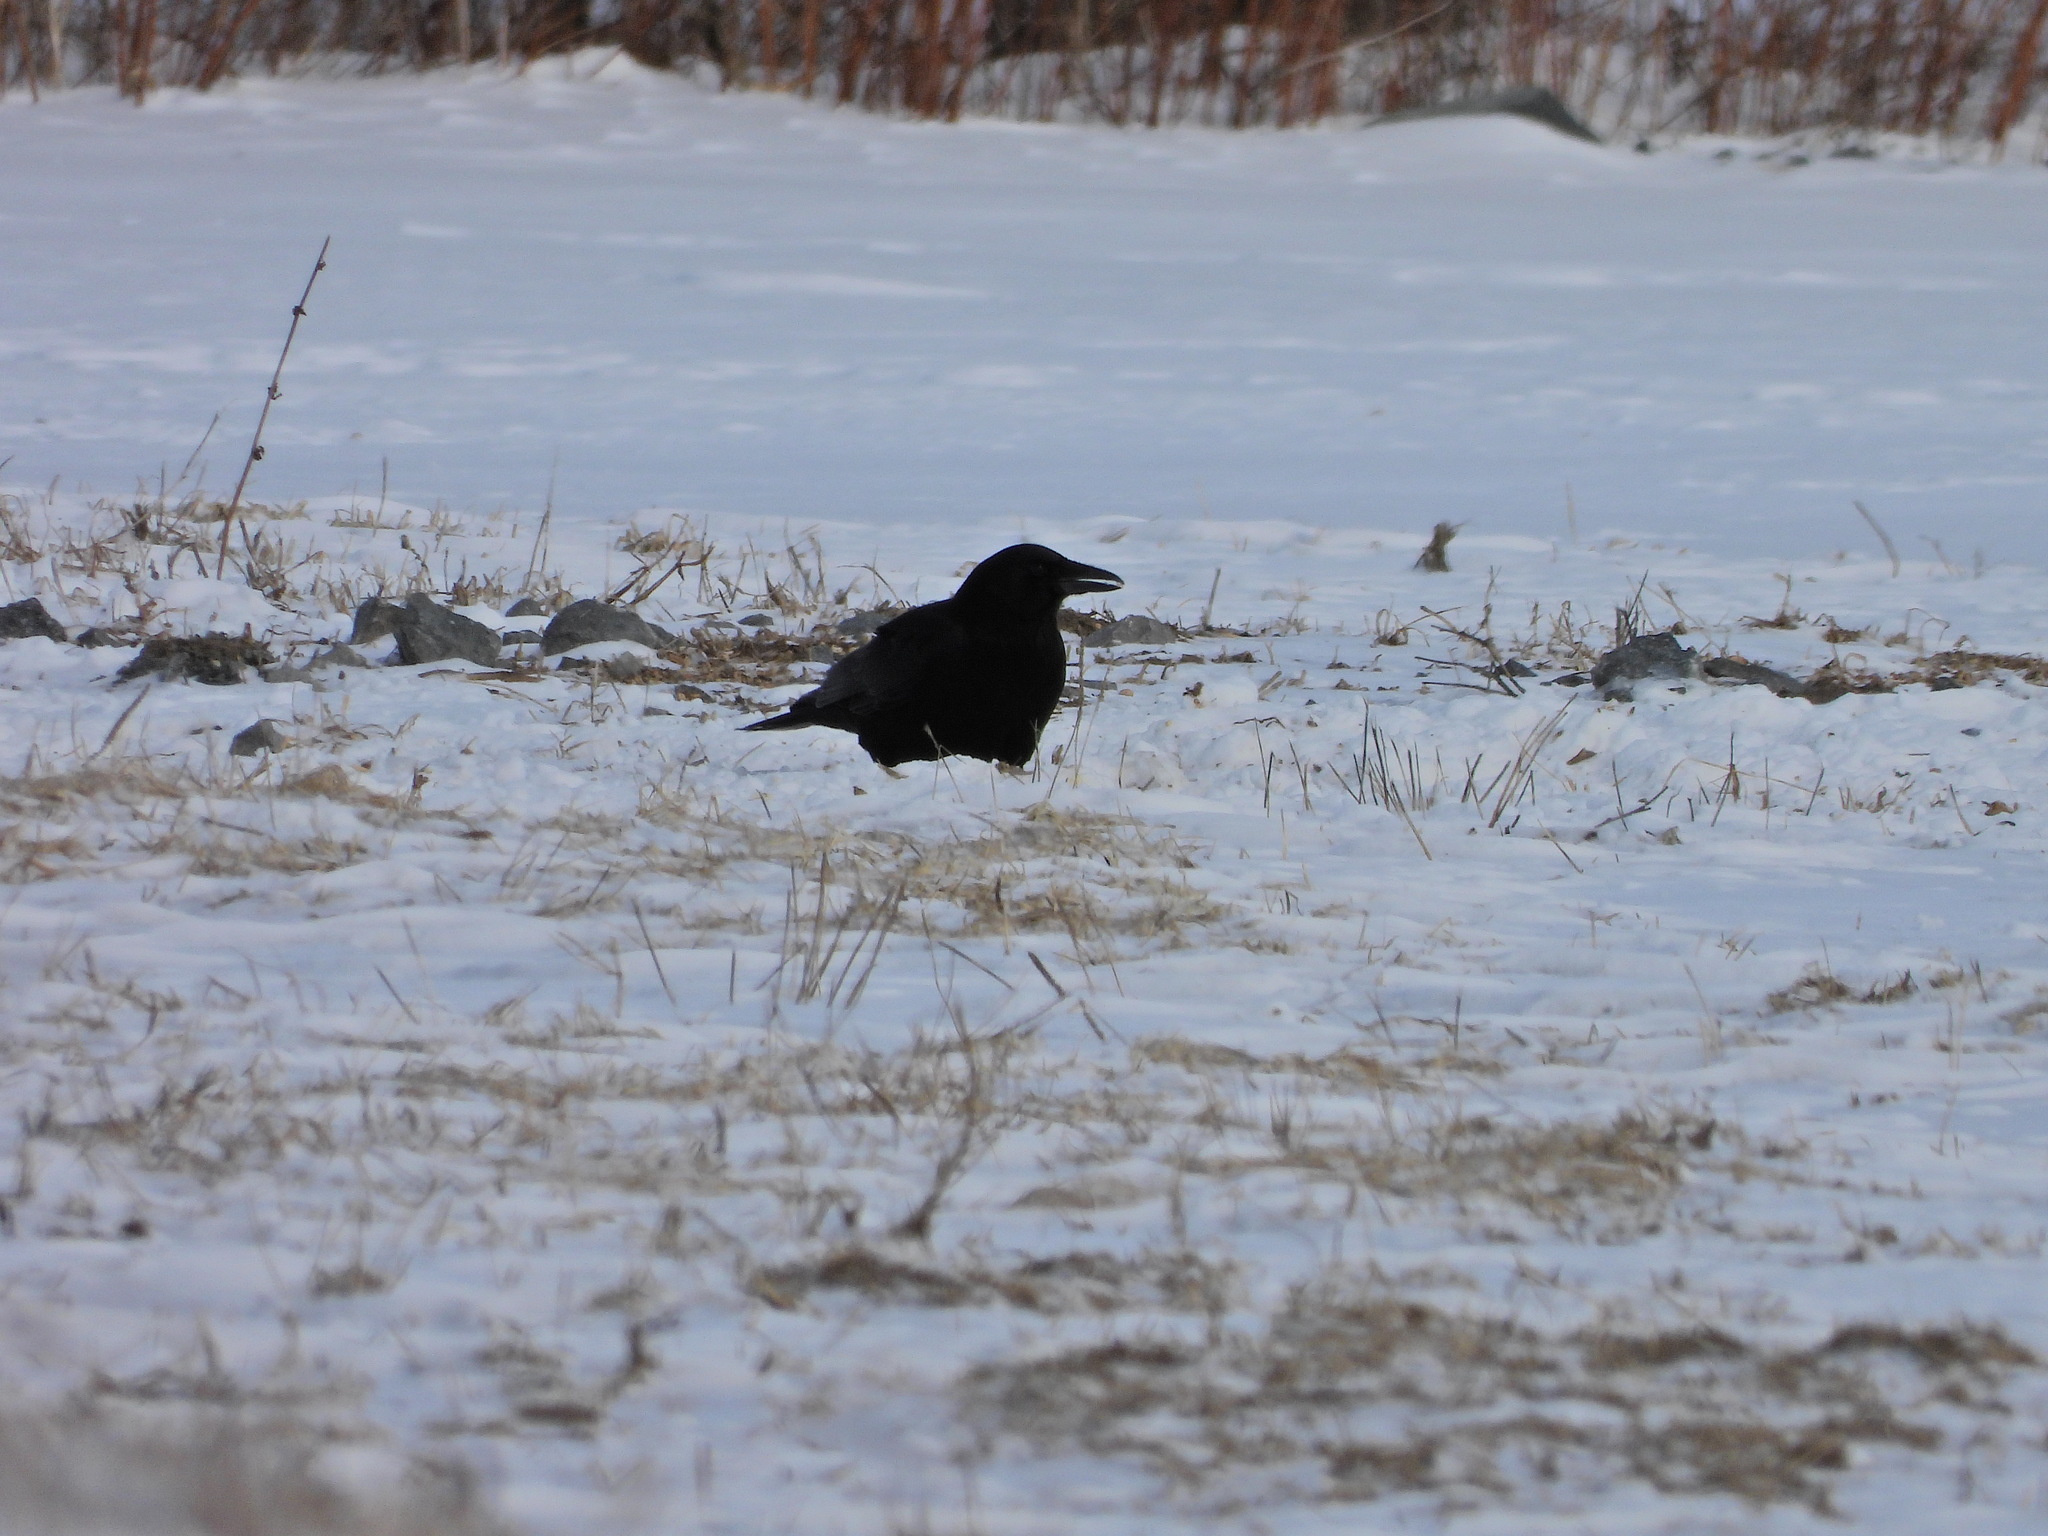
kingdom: Animalia
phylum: Chordata
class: Aves
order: Passeriformes
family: Corvidae
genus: Corvus
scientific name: Corvus brachyrhynchos
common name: American crow
